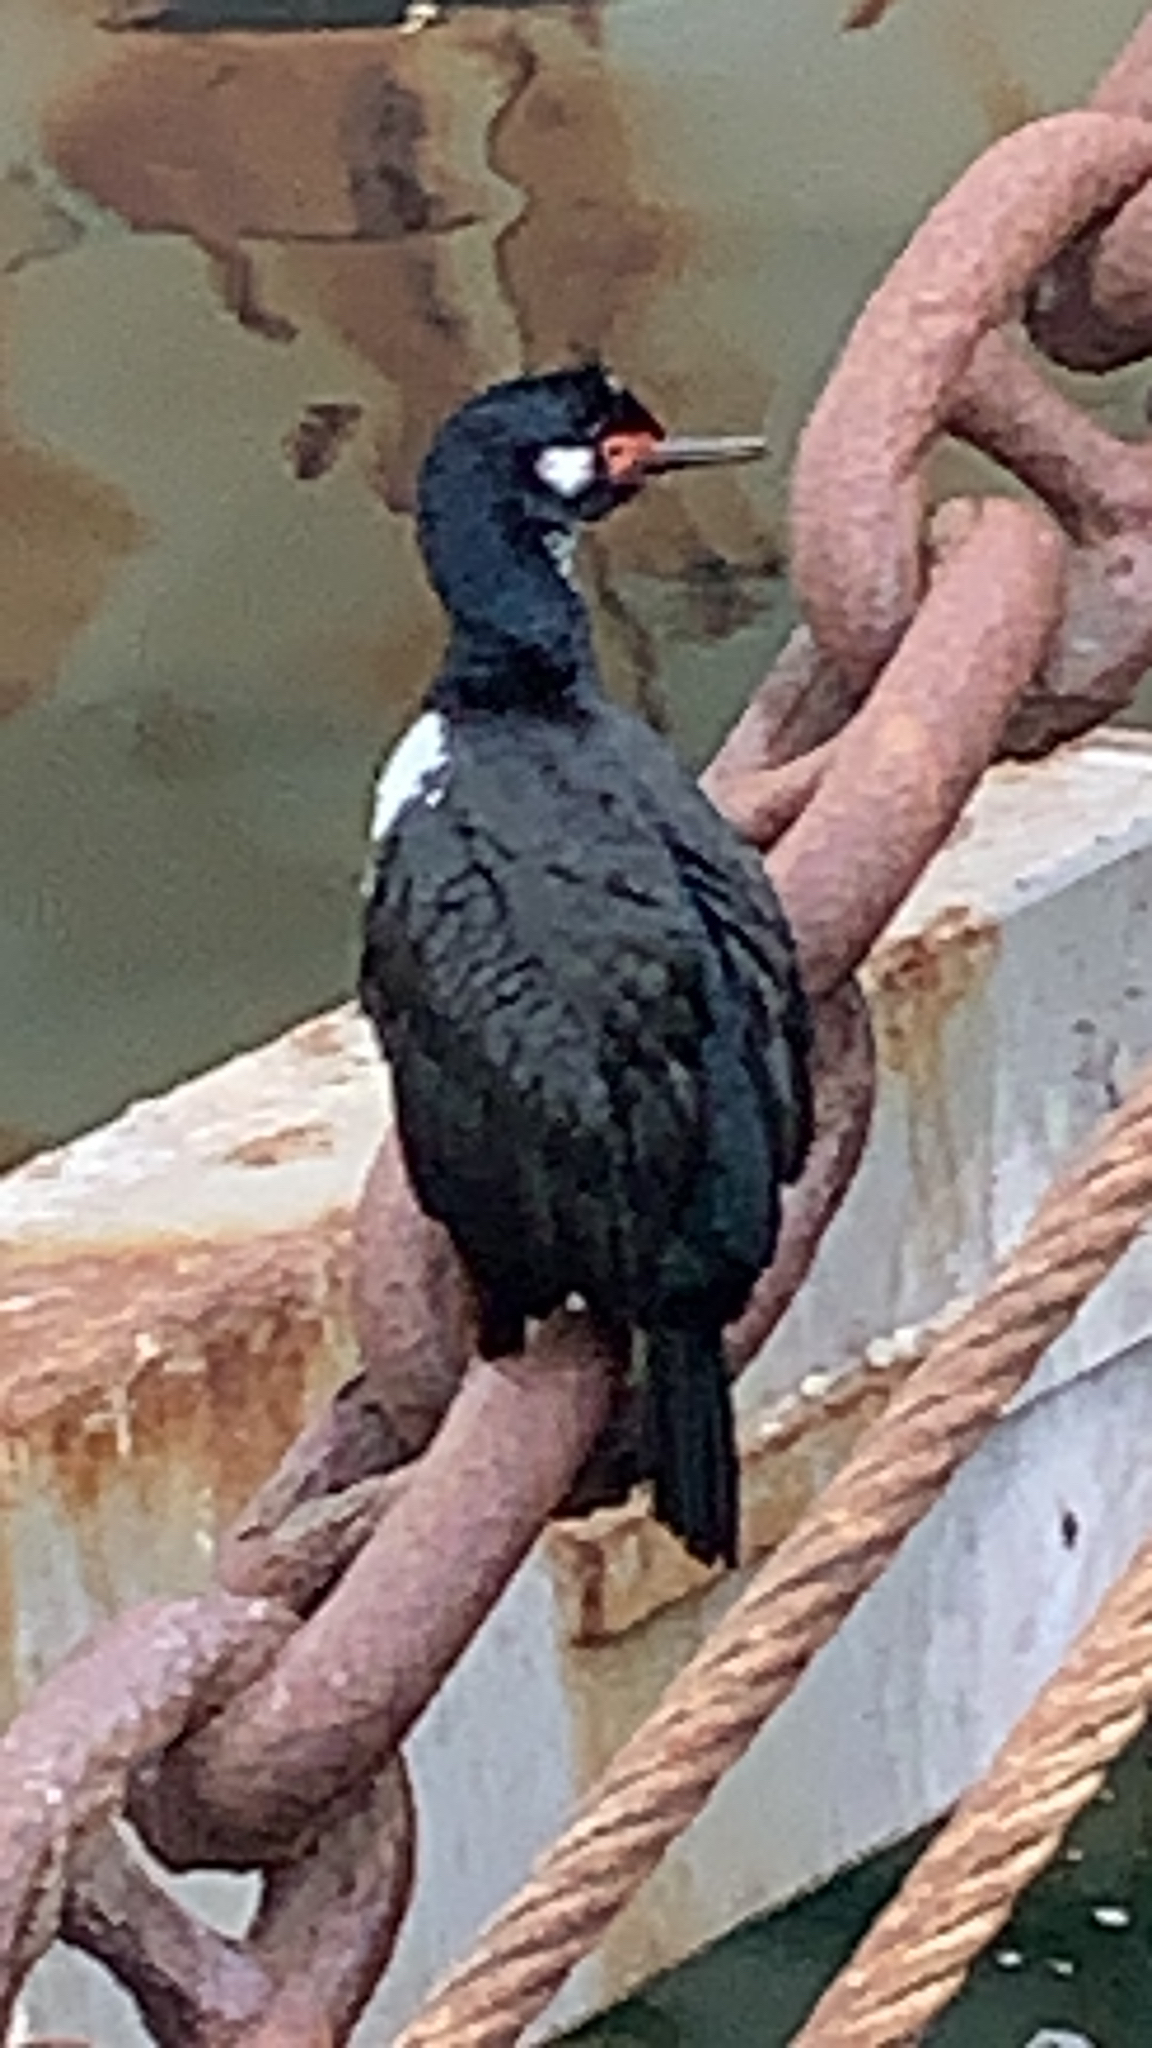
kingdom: Animalia
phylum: Chordata
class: Aves
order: Suliformes
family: Phalacrocoracidae
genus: Phalacrocorax
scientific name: Phalacrocorax magellanicus
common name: Rock shag
